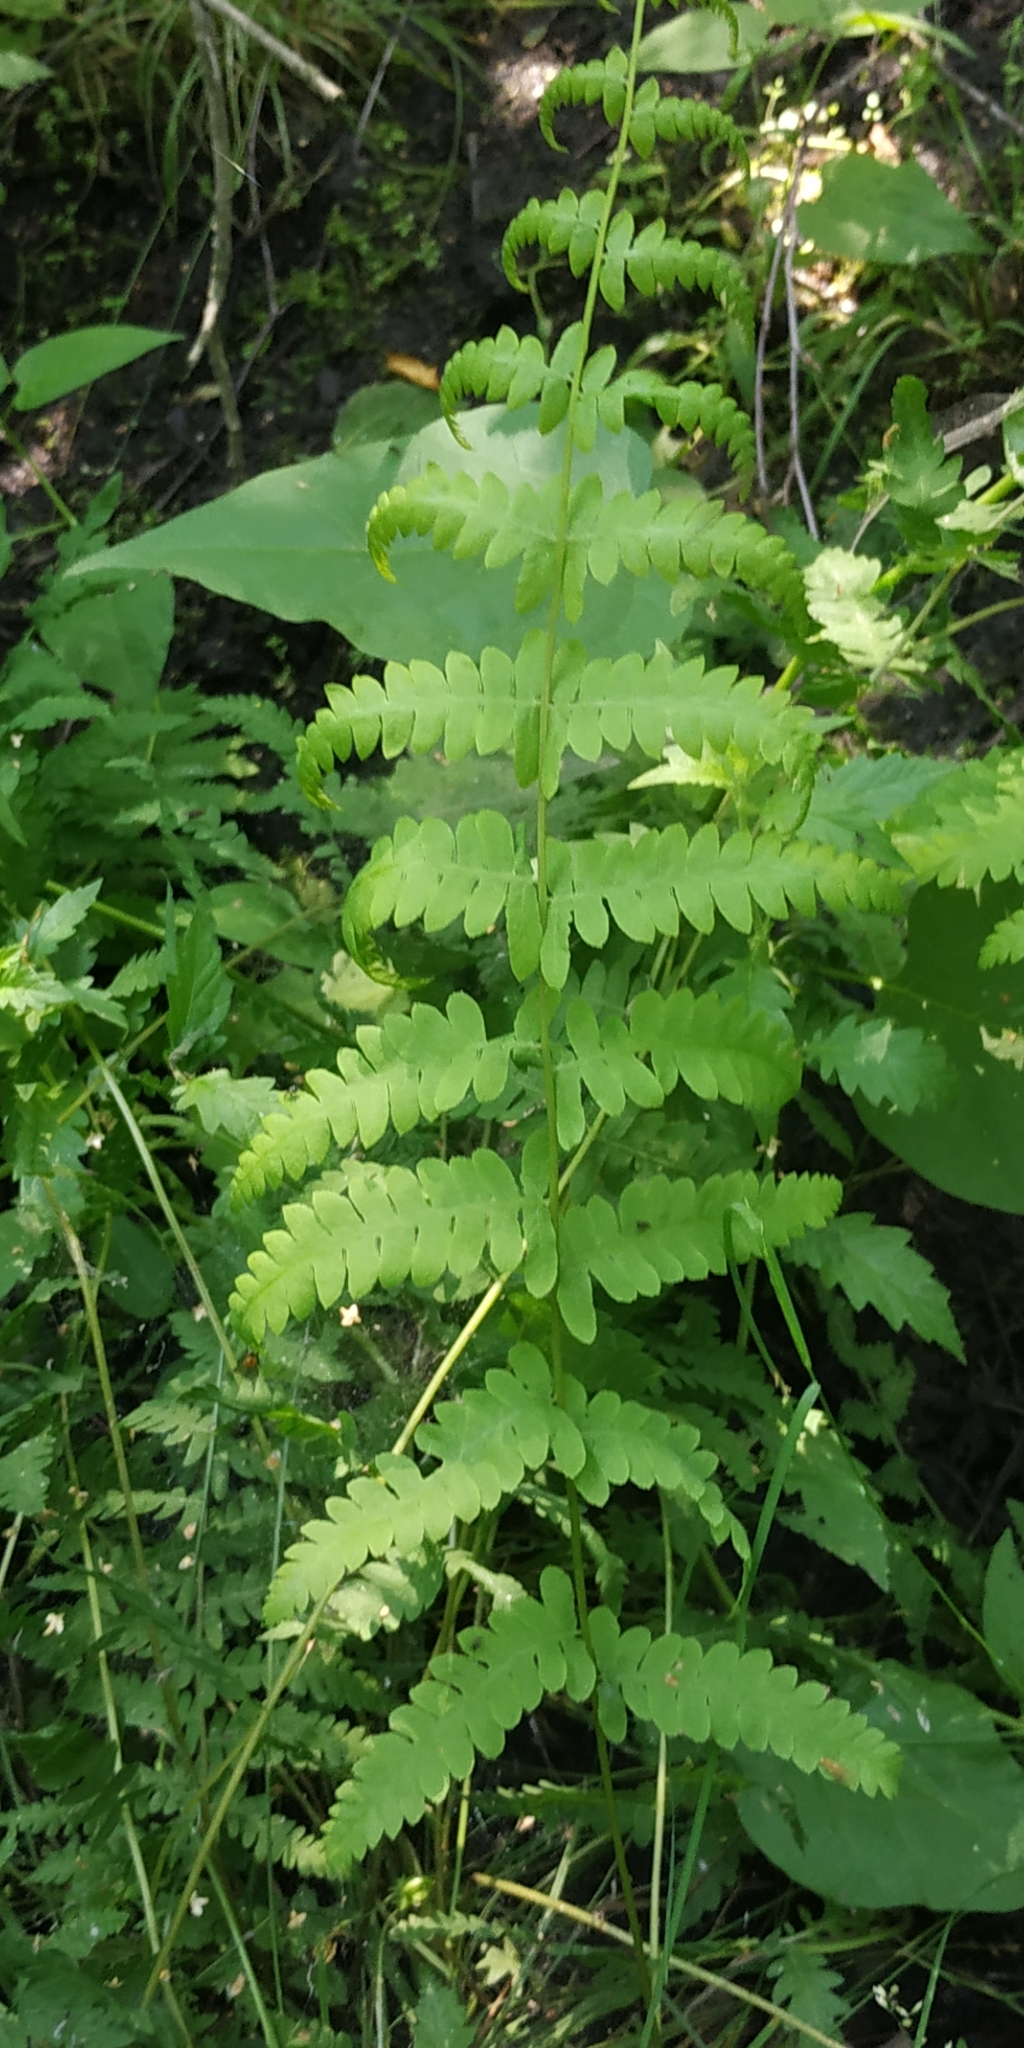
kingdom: Plantae
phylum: Tracheophyta
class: Polypodiopsida
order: Polypodiales
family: Thelypteridaceae
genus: Thelypteris
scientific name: Thelypteris palustris
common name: Marsh fern
